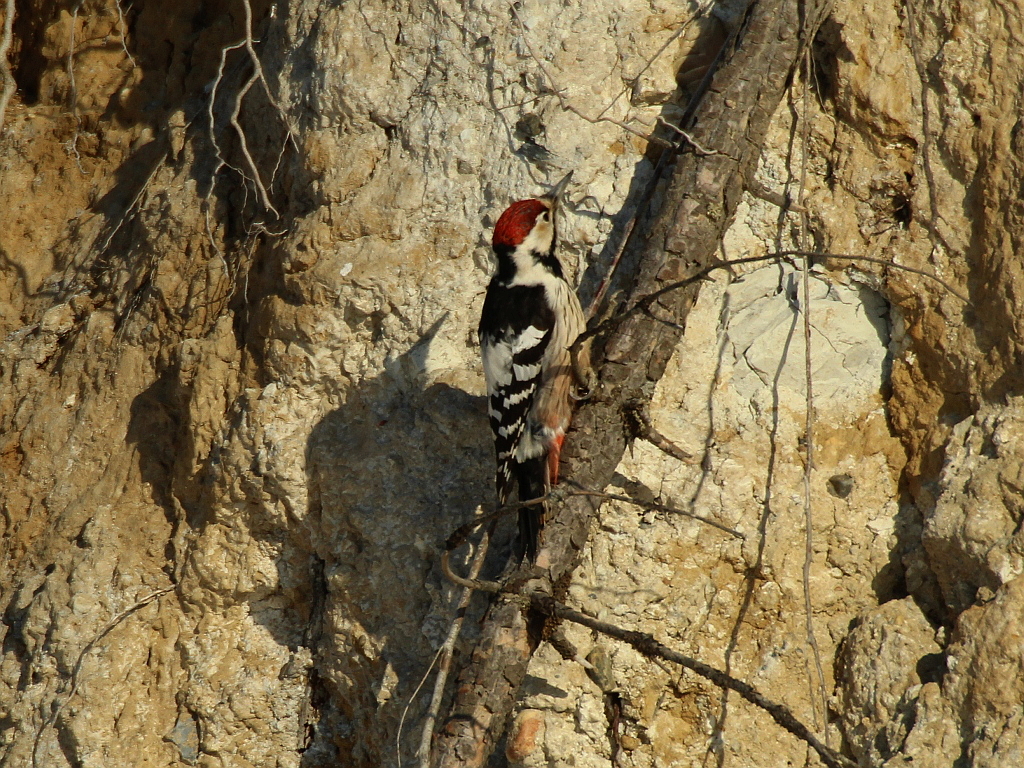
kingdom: Animalia
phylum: Chordata
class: Aves
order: Piciformes
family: Picidae
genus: Dendrocopos
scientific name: Dendrocopos leucotos
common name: White-backed woodpecker
